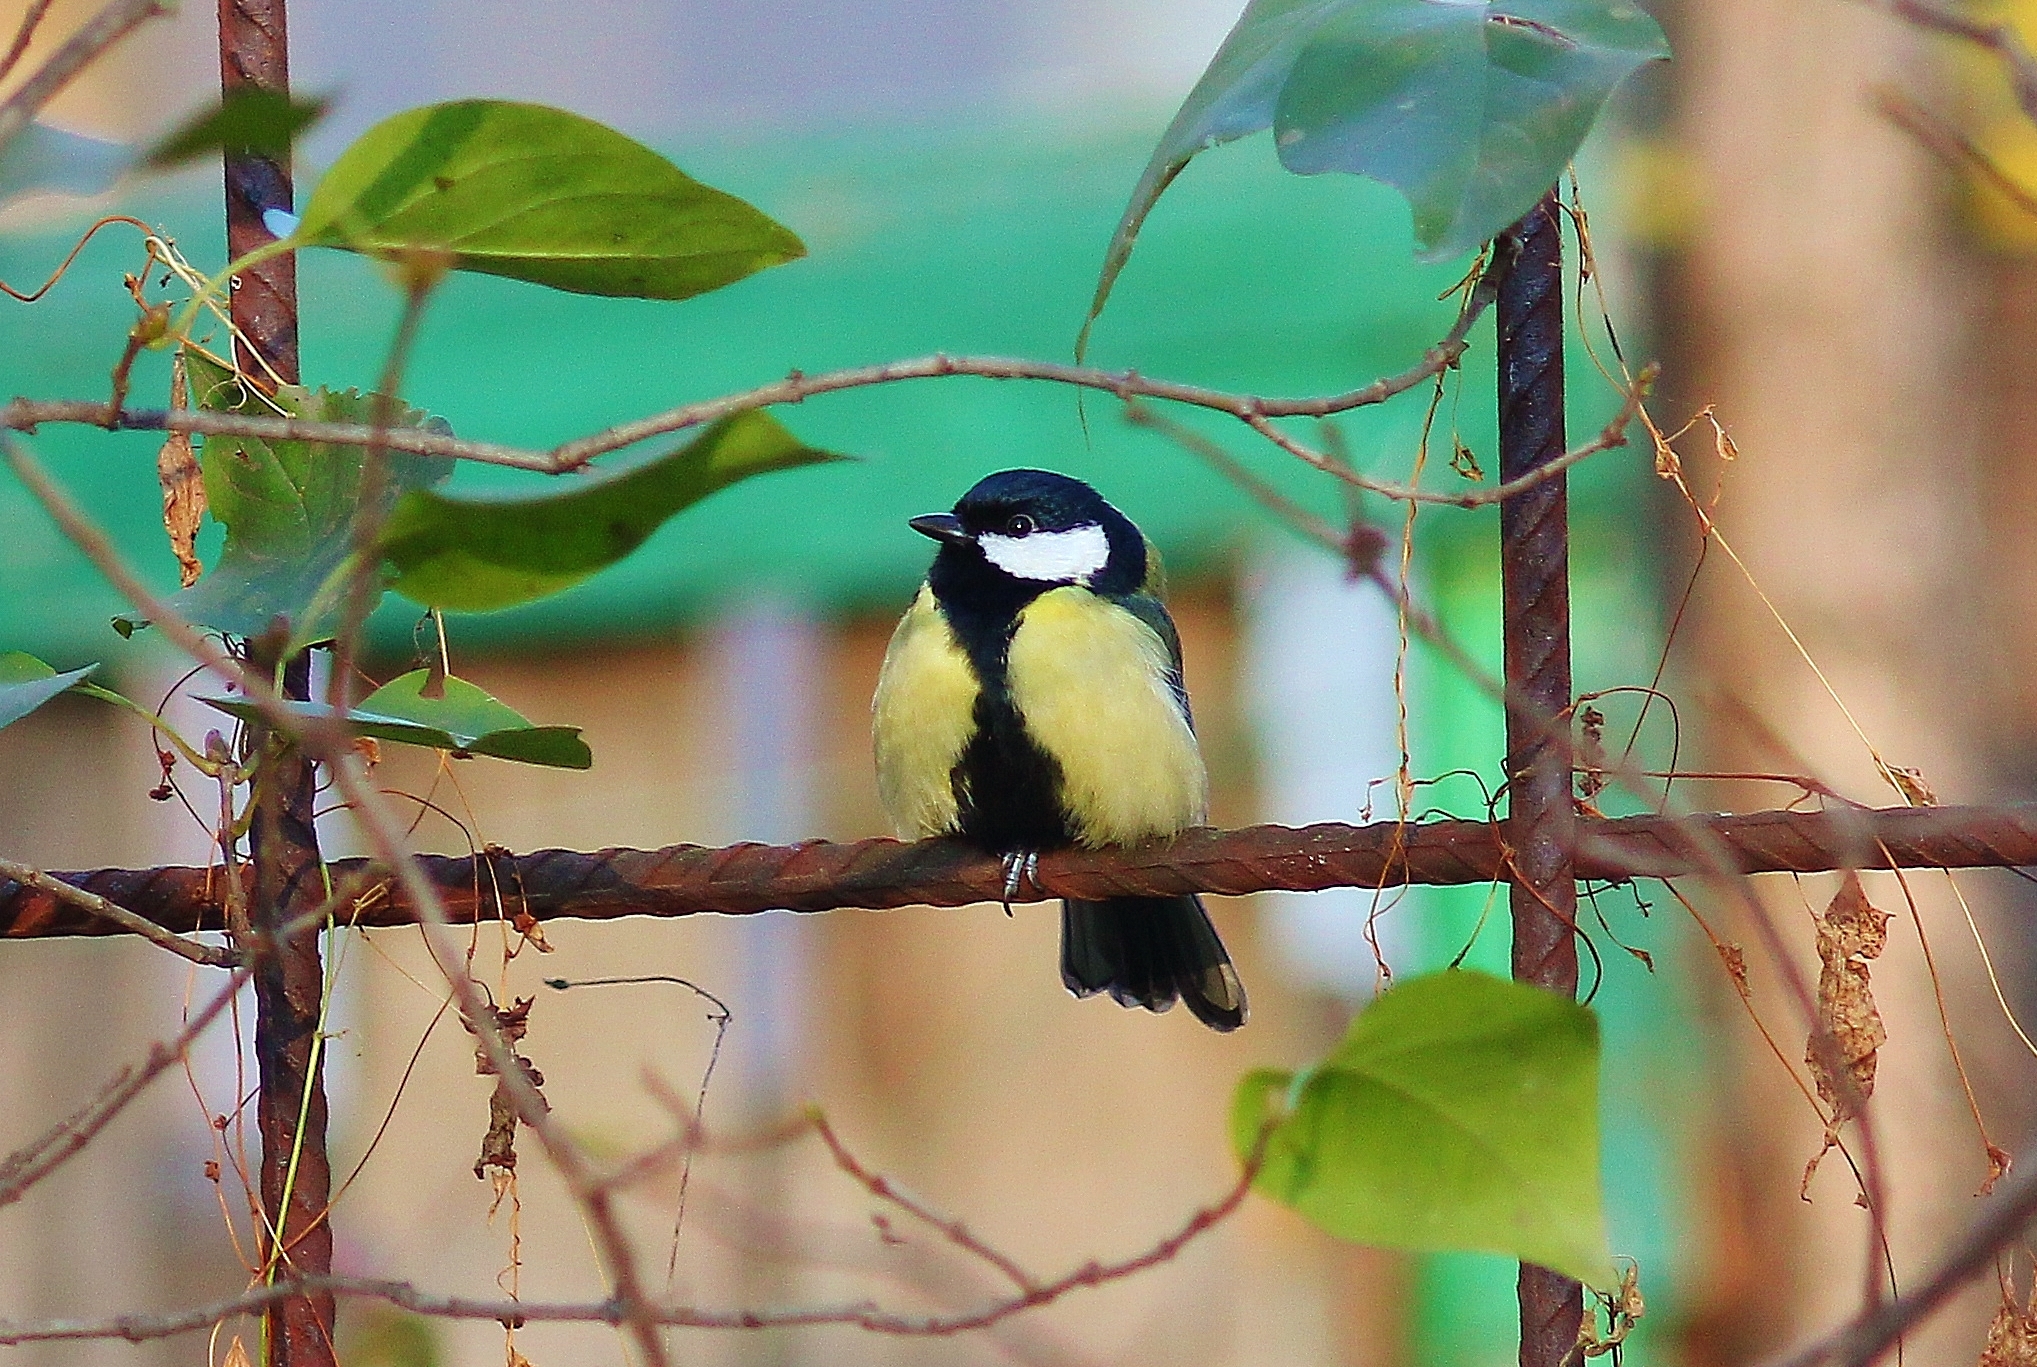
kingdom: Animalia
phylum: Chordata
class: Aves
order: Passeriformes
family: Paridae
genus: Parus
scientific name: Parus major
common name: Great tit
